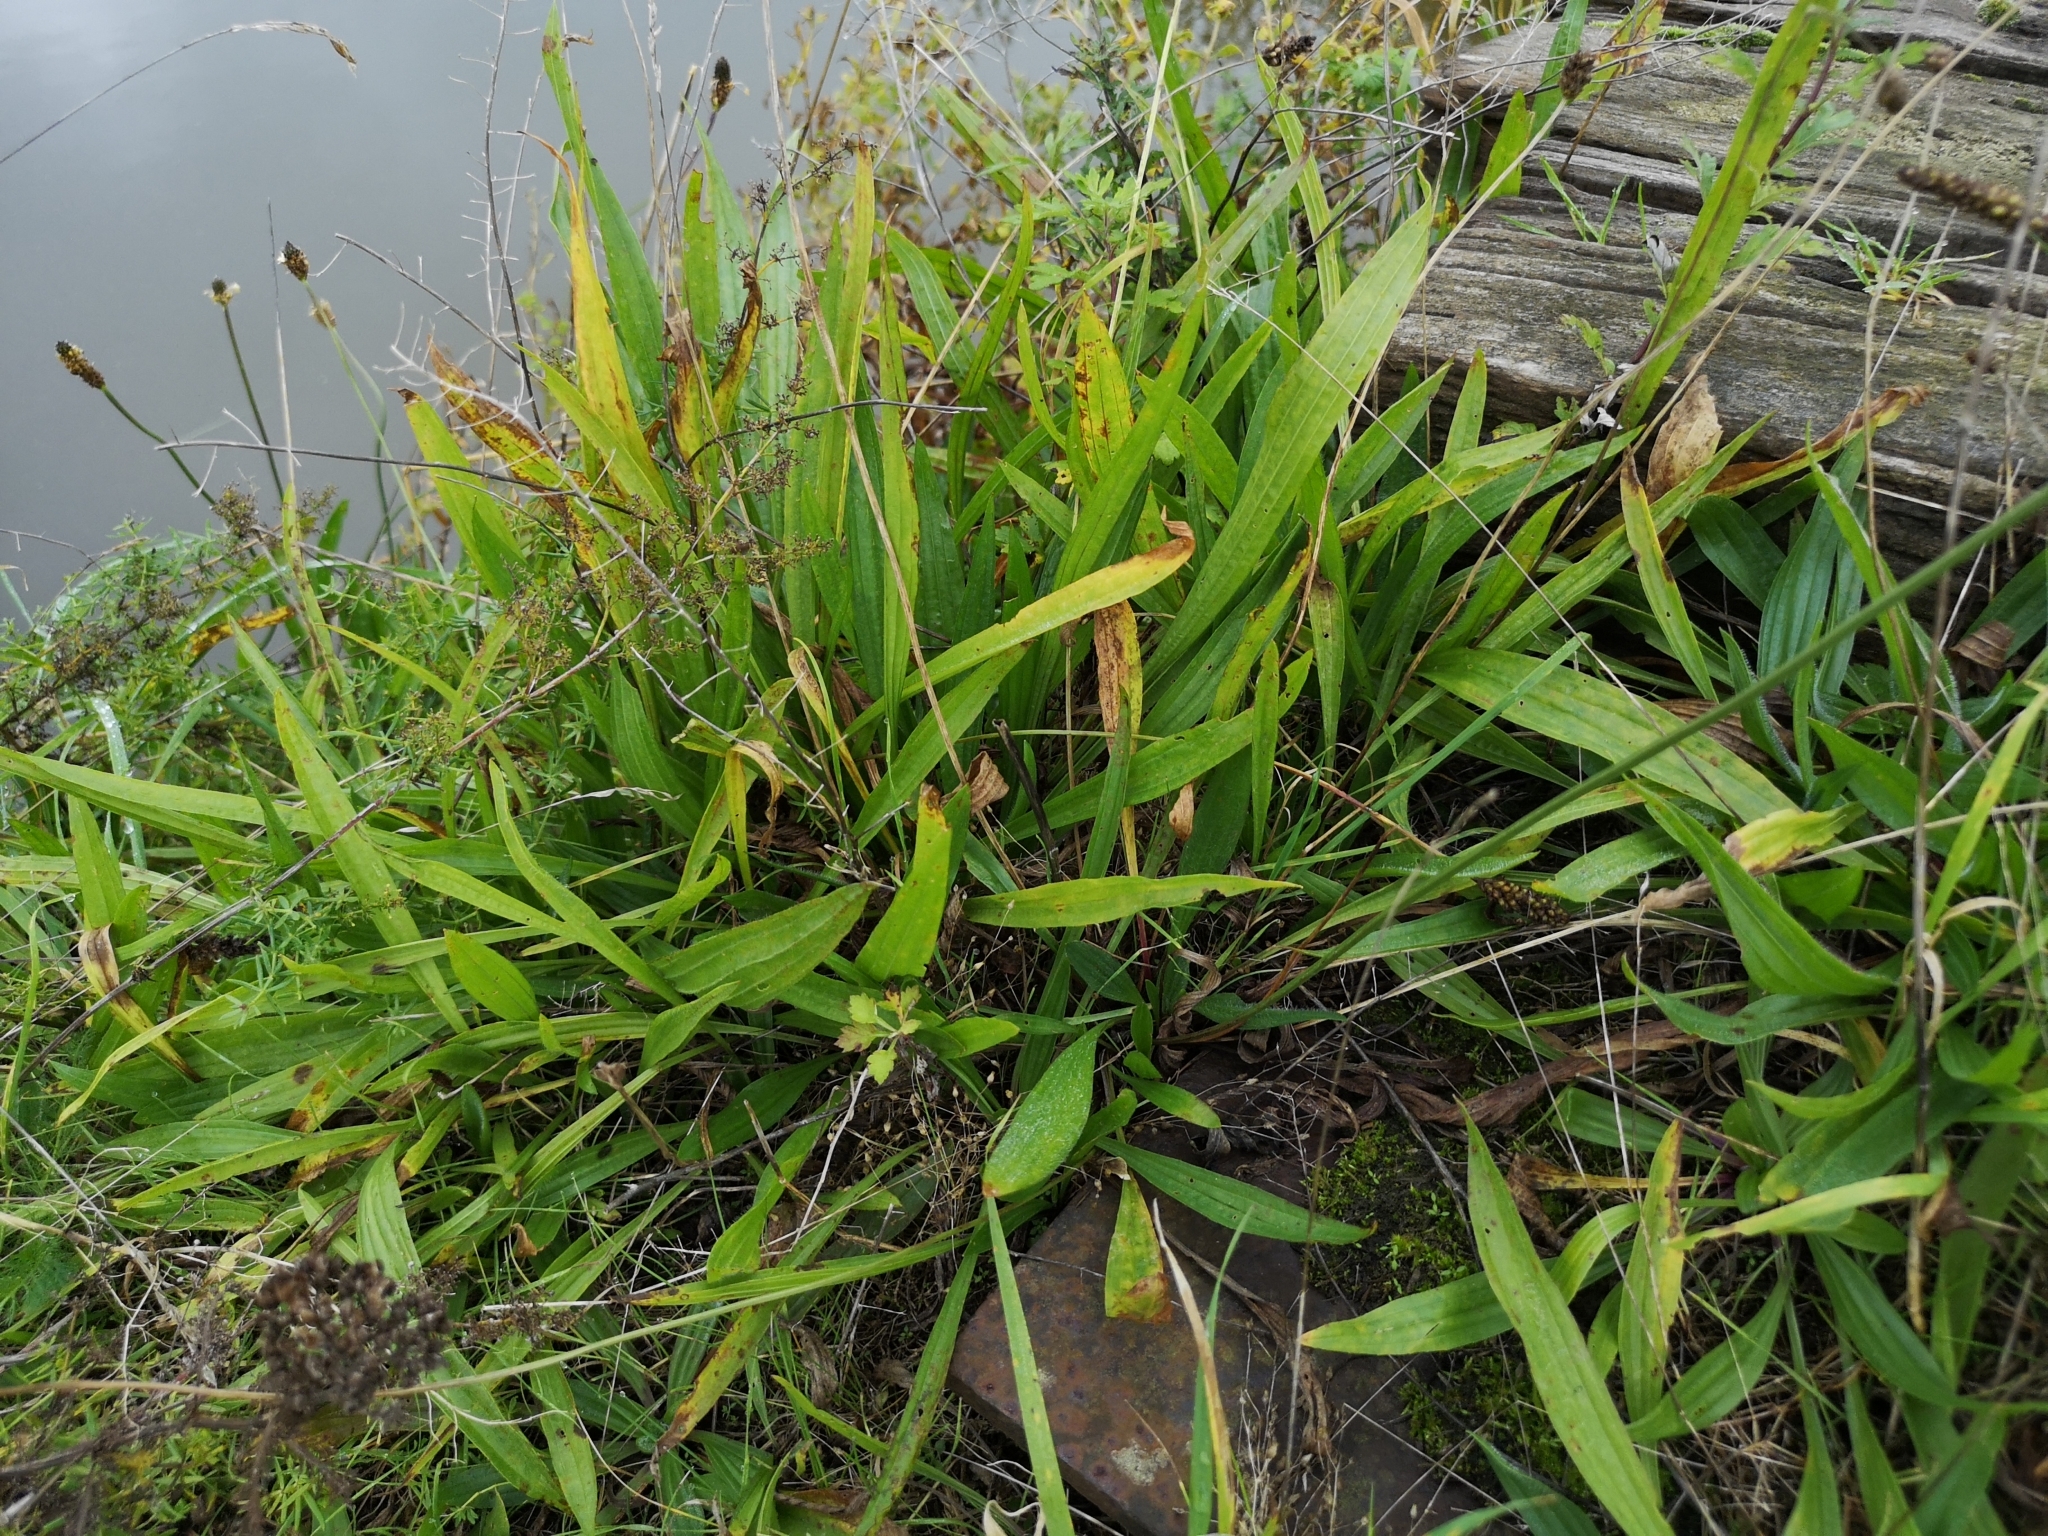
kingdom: Plantae
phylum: Tracheophyta
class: Magnoliopsida
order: Lamiales
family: Plantaginaceae
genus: Plantago
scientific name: Plantago lanceolata
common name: Ribwort plantain
